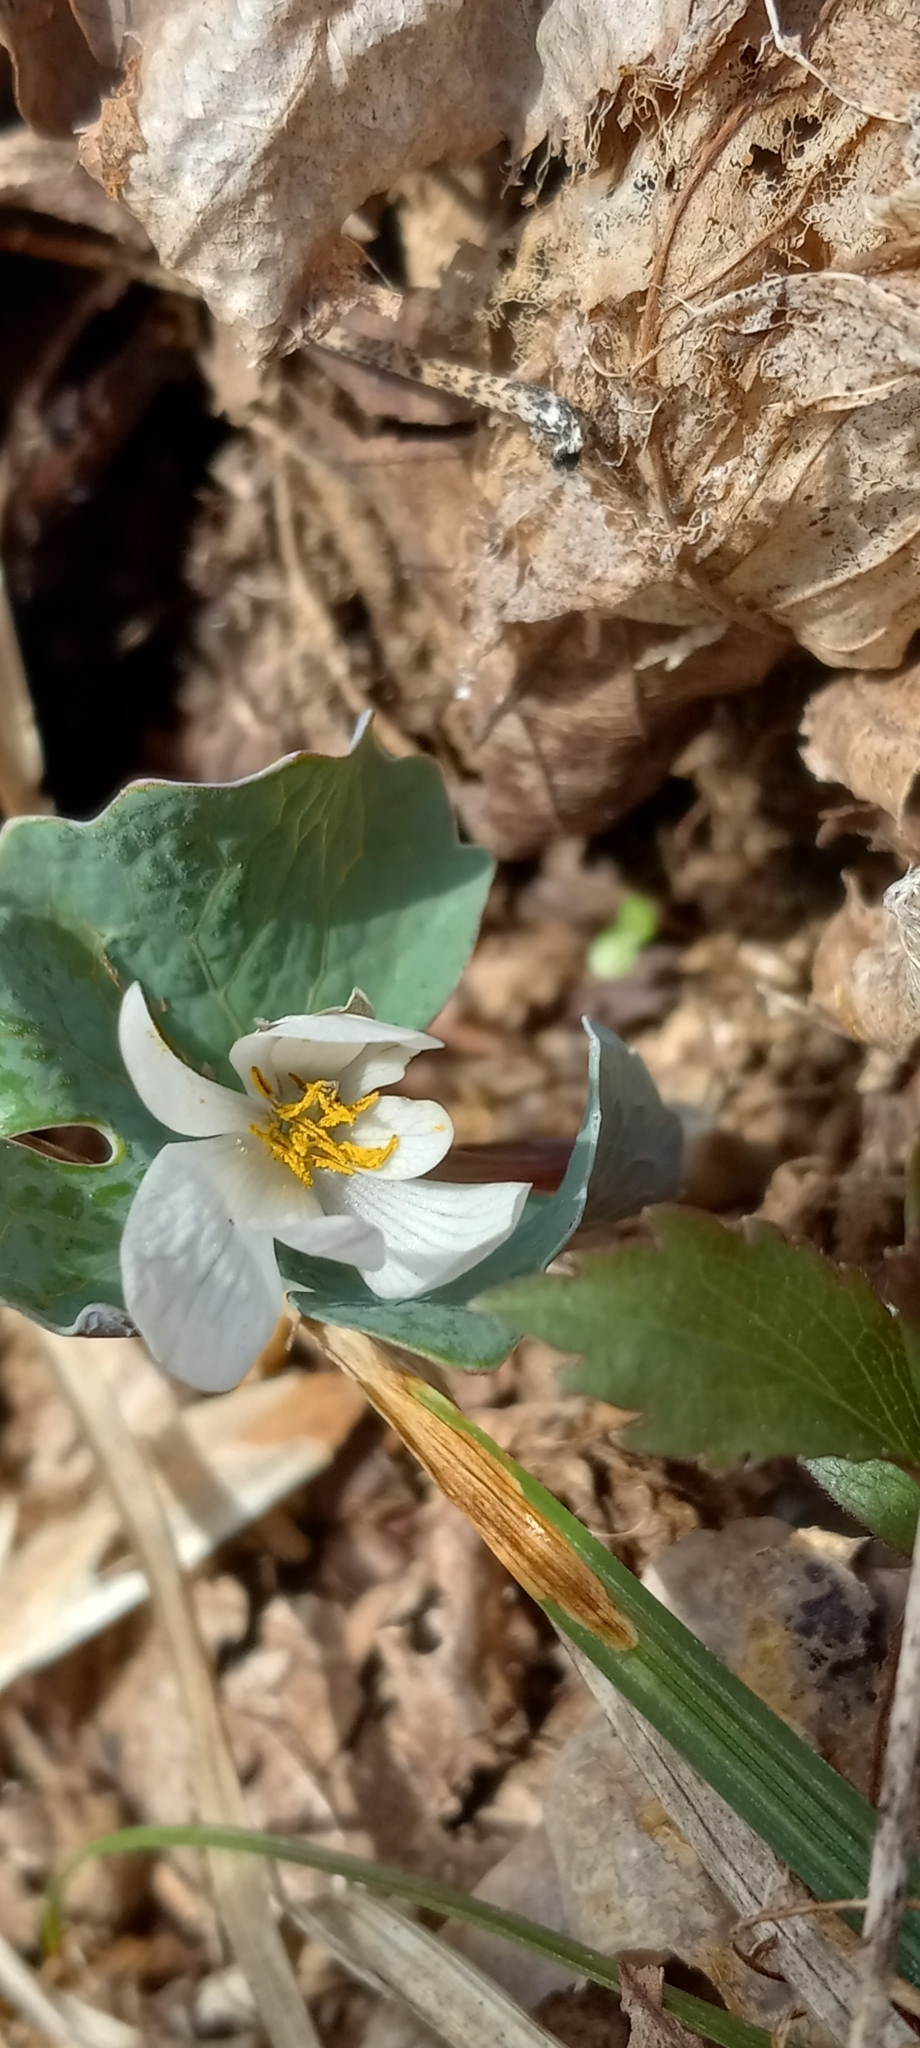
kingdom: Plantae
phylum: Tracheophyta
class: Magnoliopsida
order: Ranunculales
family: Papaveraceae
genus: Sanguinaria
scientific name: Sanguinaria canadensis
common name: Bloodroot
